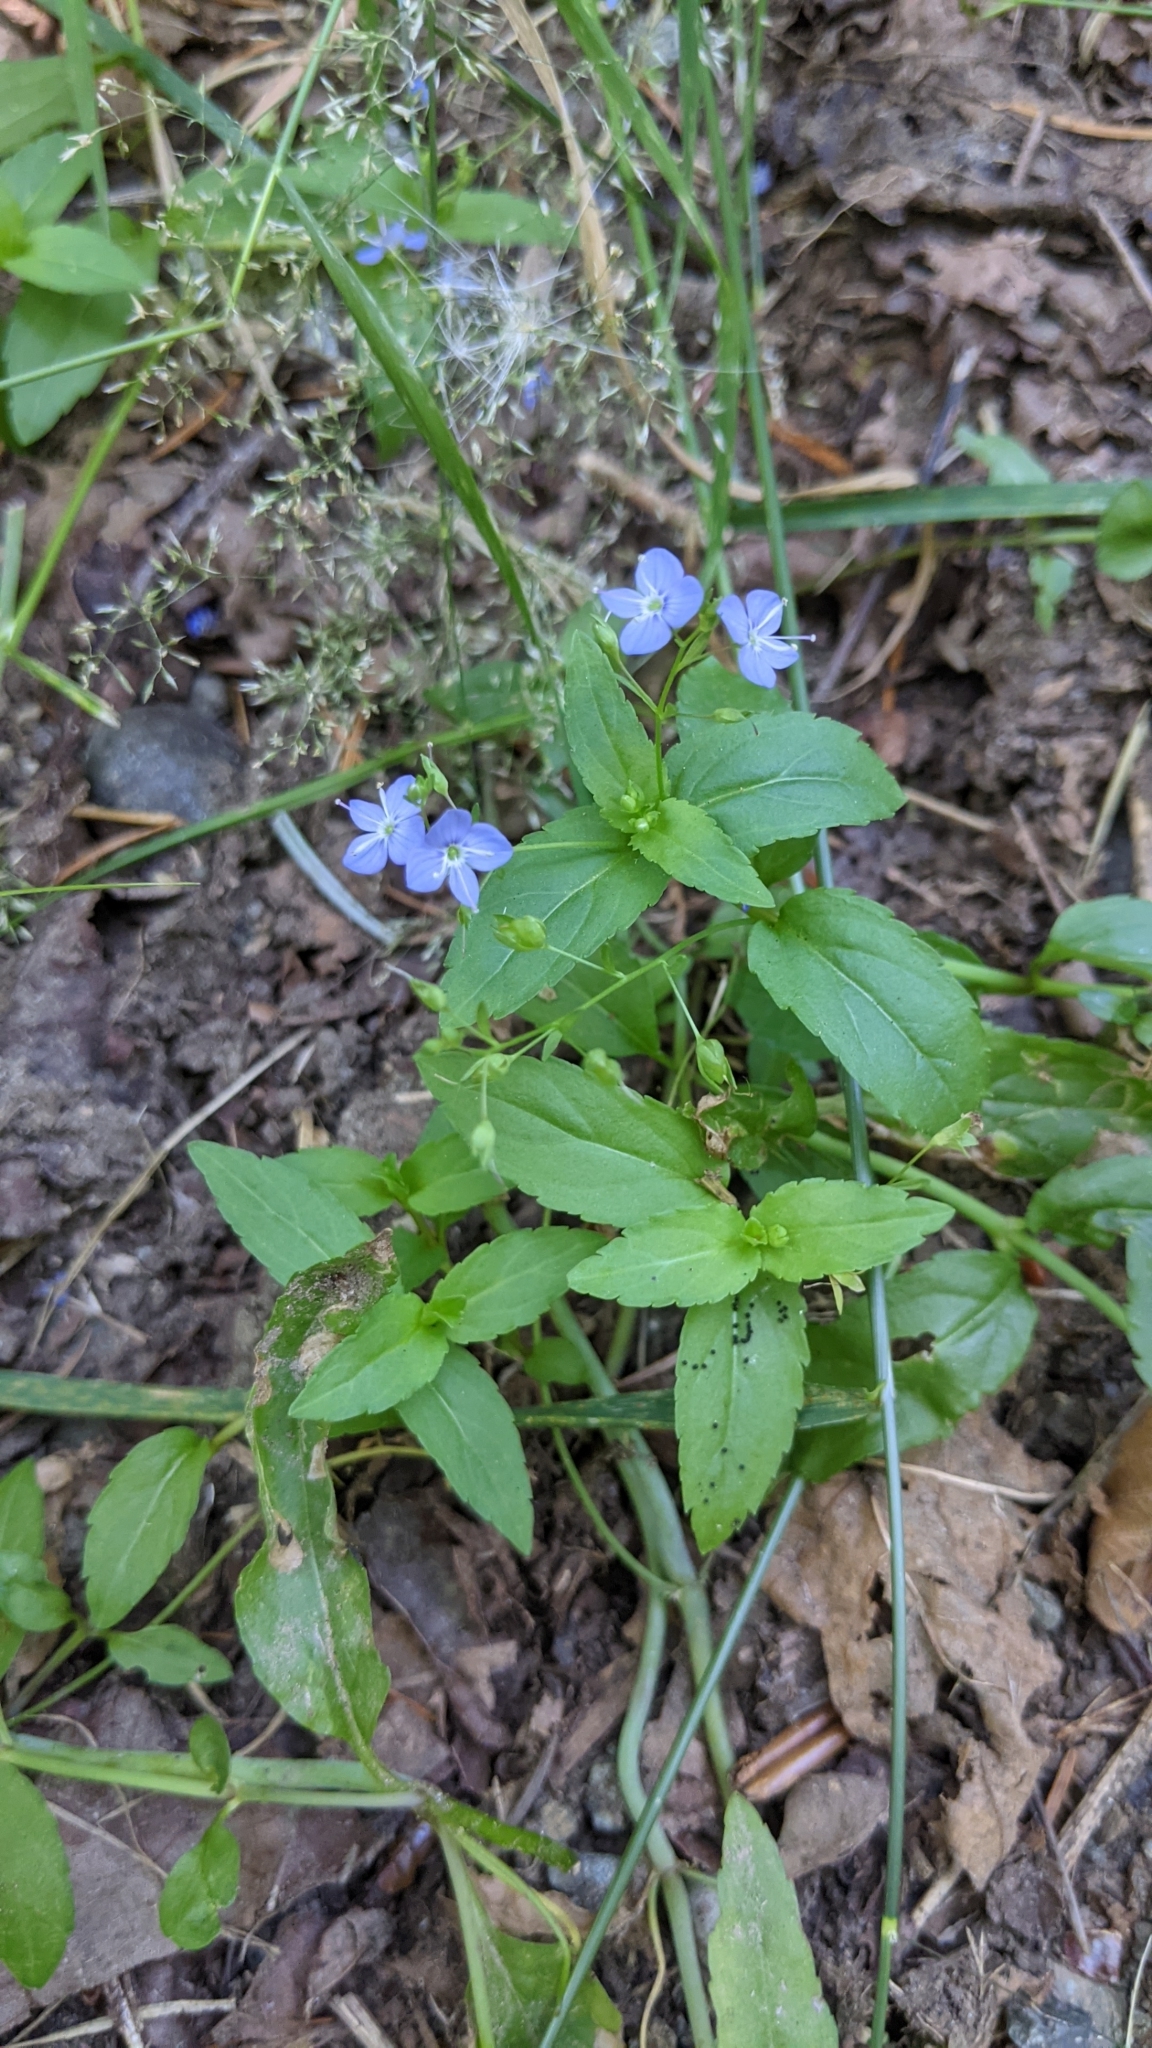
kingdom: Plantae
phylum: Tracheophyta
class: Magnoliopsida
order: Lamiales
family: Plantaginaceae
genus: Veronica
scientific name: Veronica americana
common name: American brooklime
